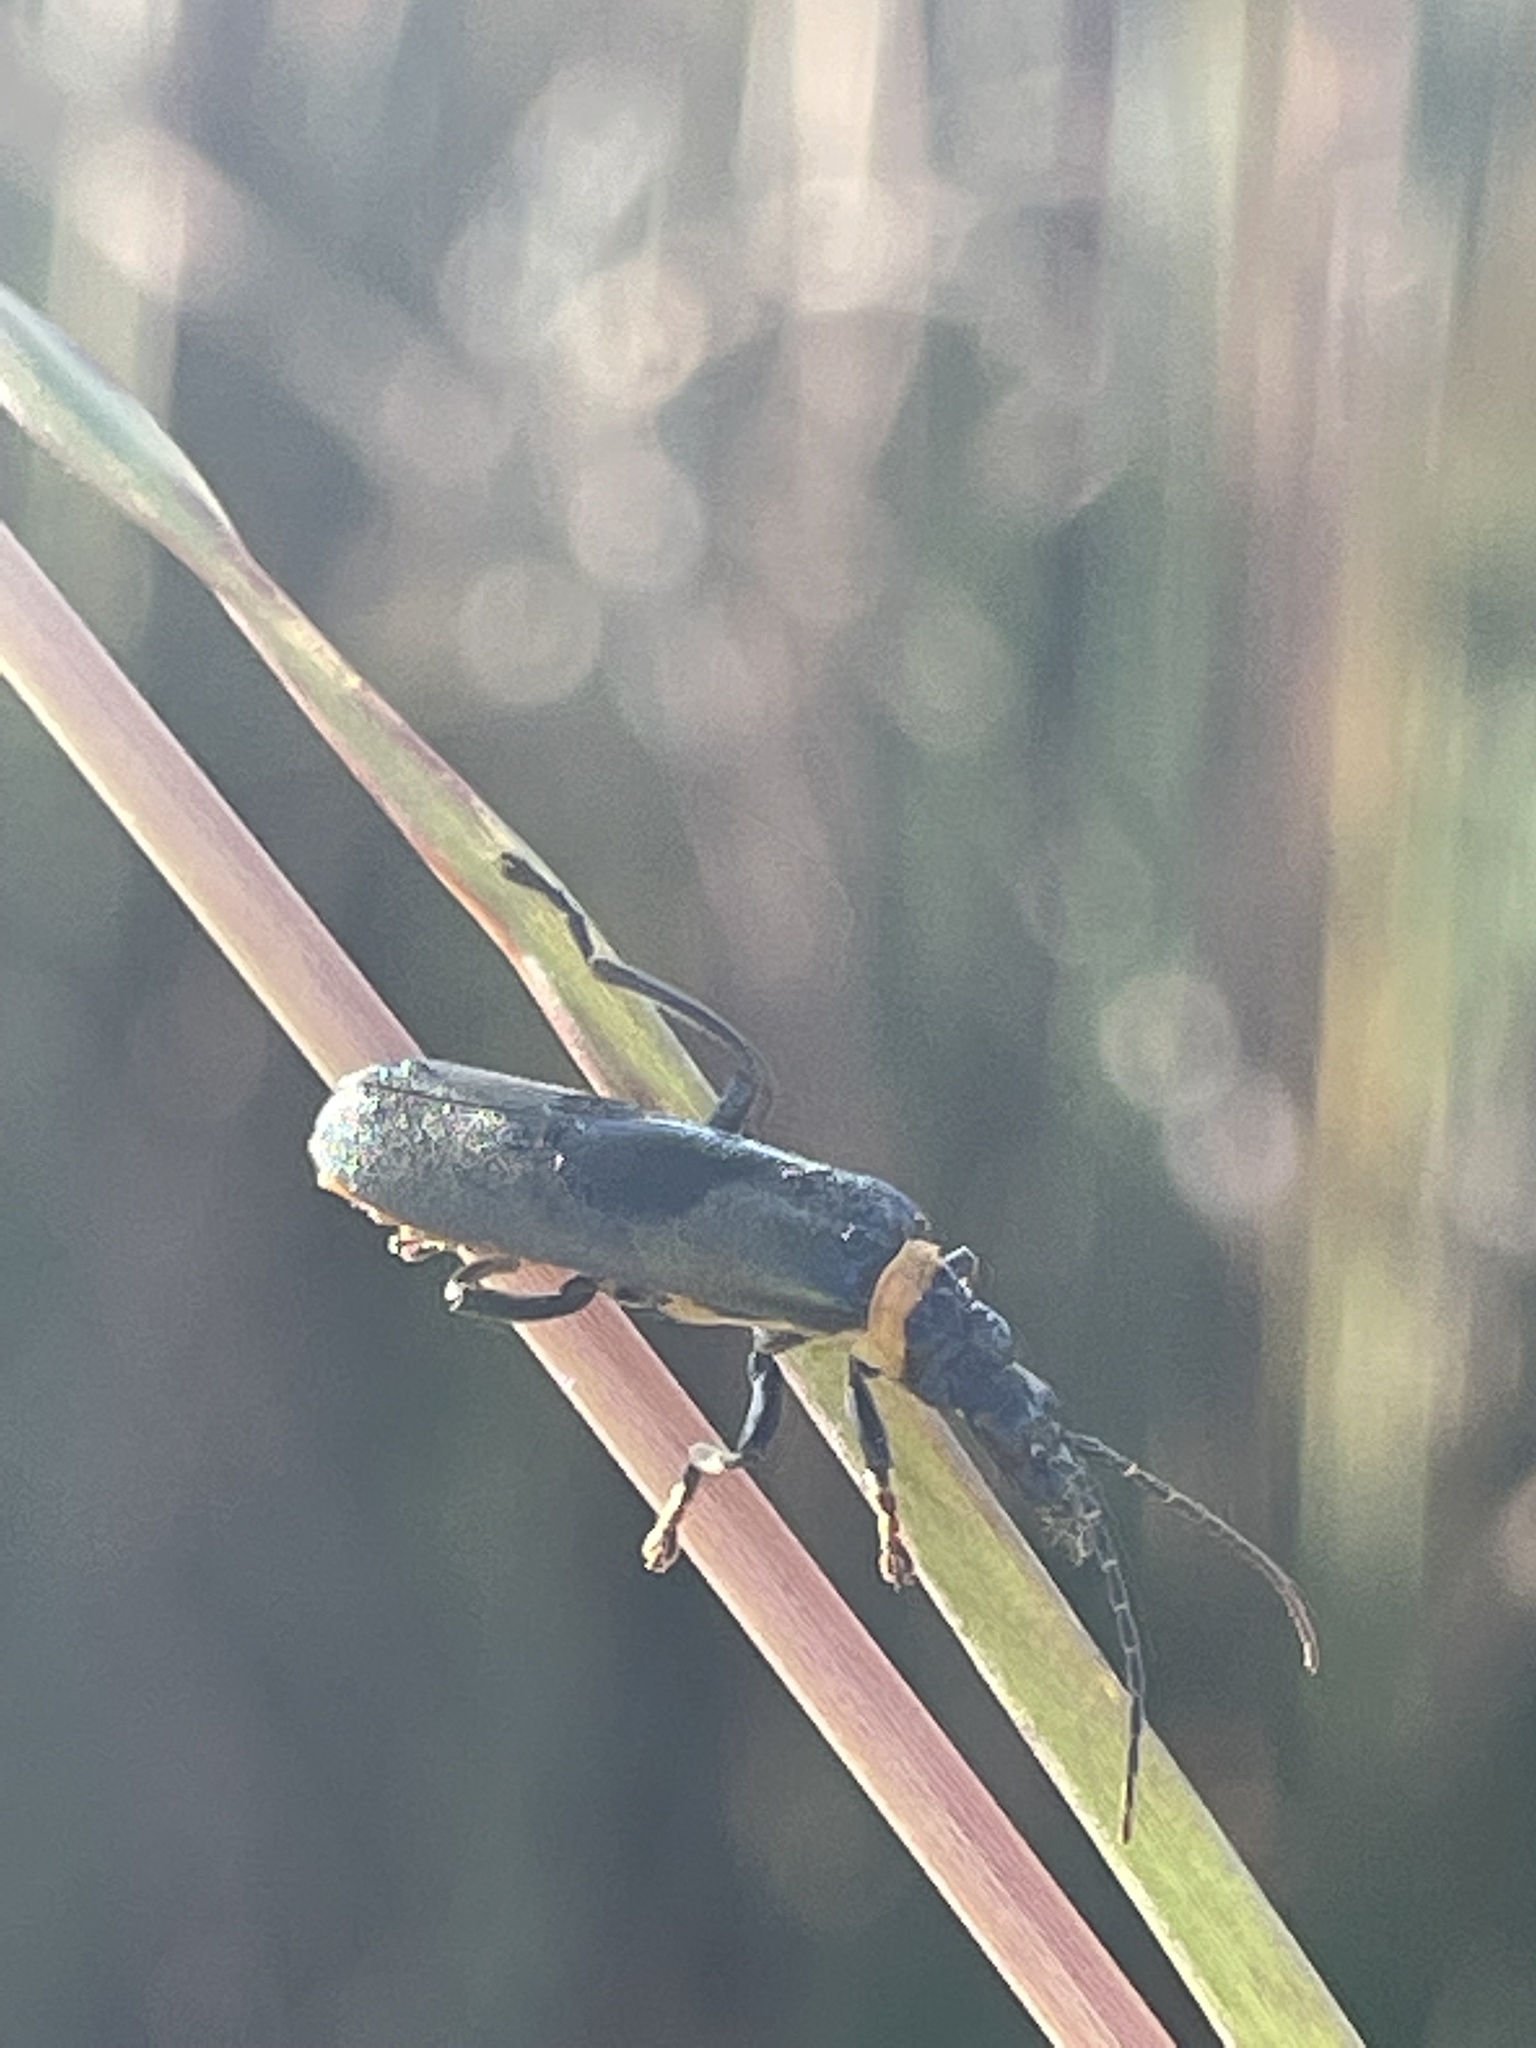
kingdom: Animalia
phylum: Arthropoda
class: Insecta
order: Coleoptera
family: Cantharidae
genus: Chauliognathus
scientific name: Chauliognathus
